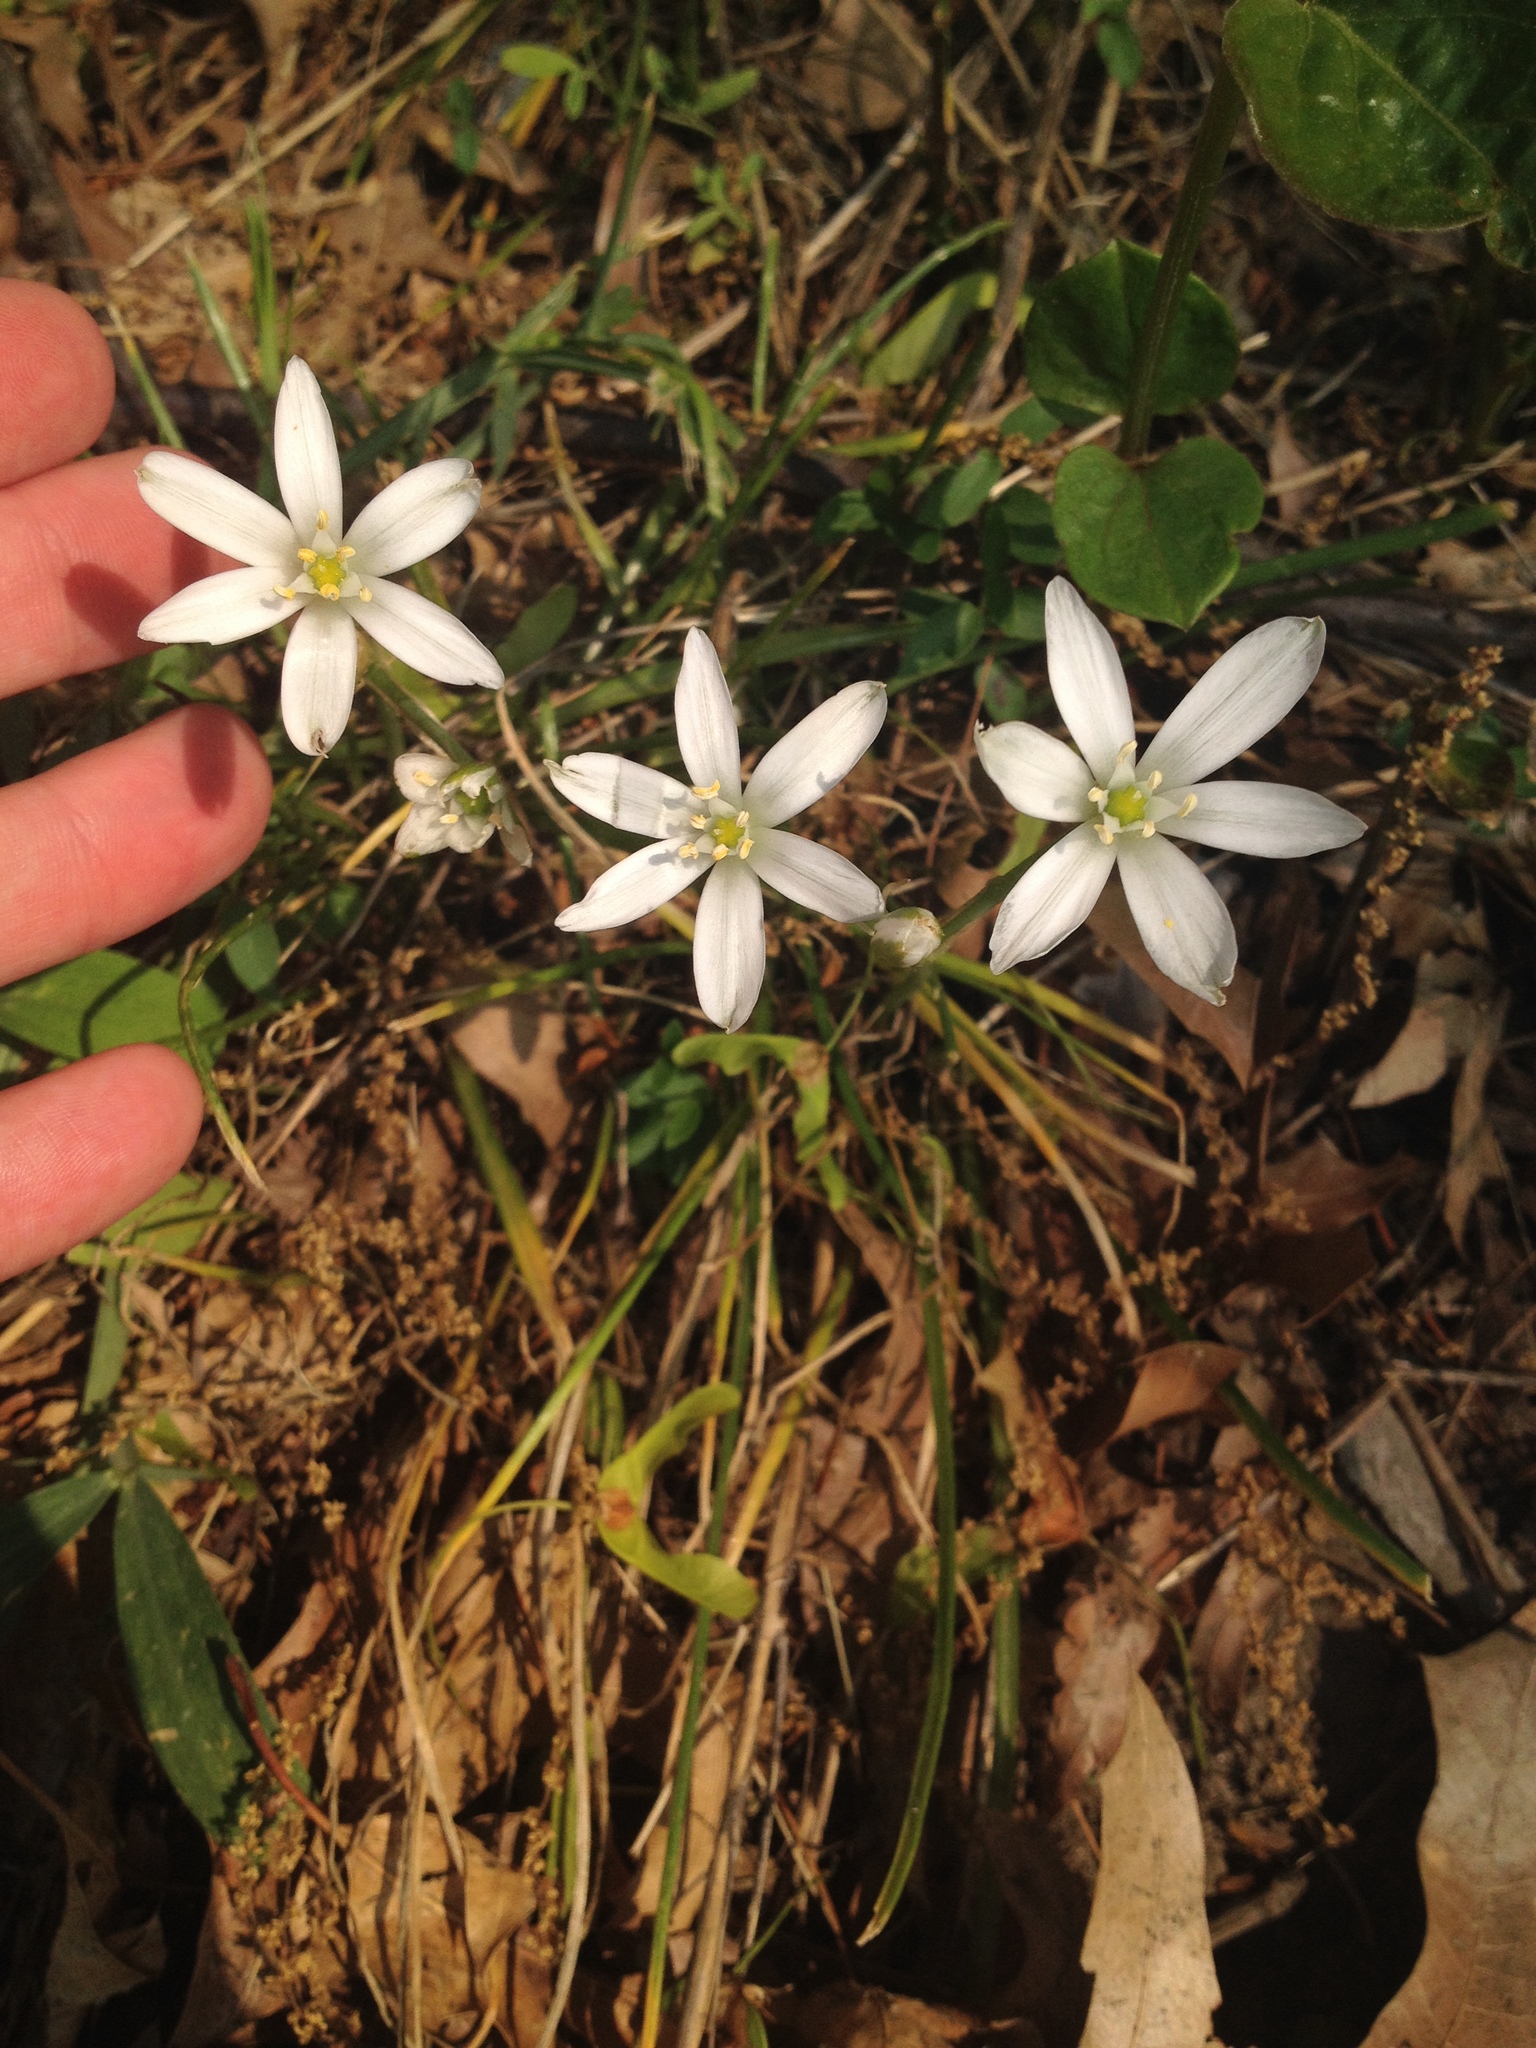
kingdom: Plantae
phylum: Tracheophyta
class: Liliopsida
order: Asparagales
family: Asparagaceae
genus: Ornithogalum
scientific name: Ornithogalum umbellatum
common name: Garden star-of-bethlehem
